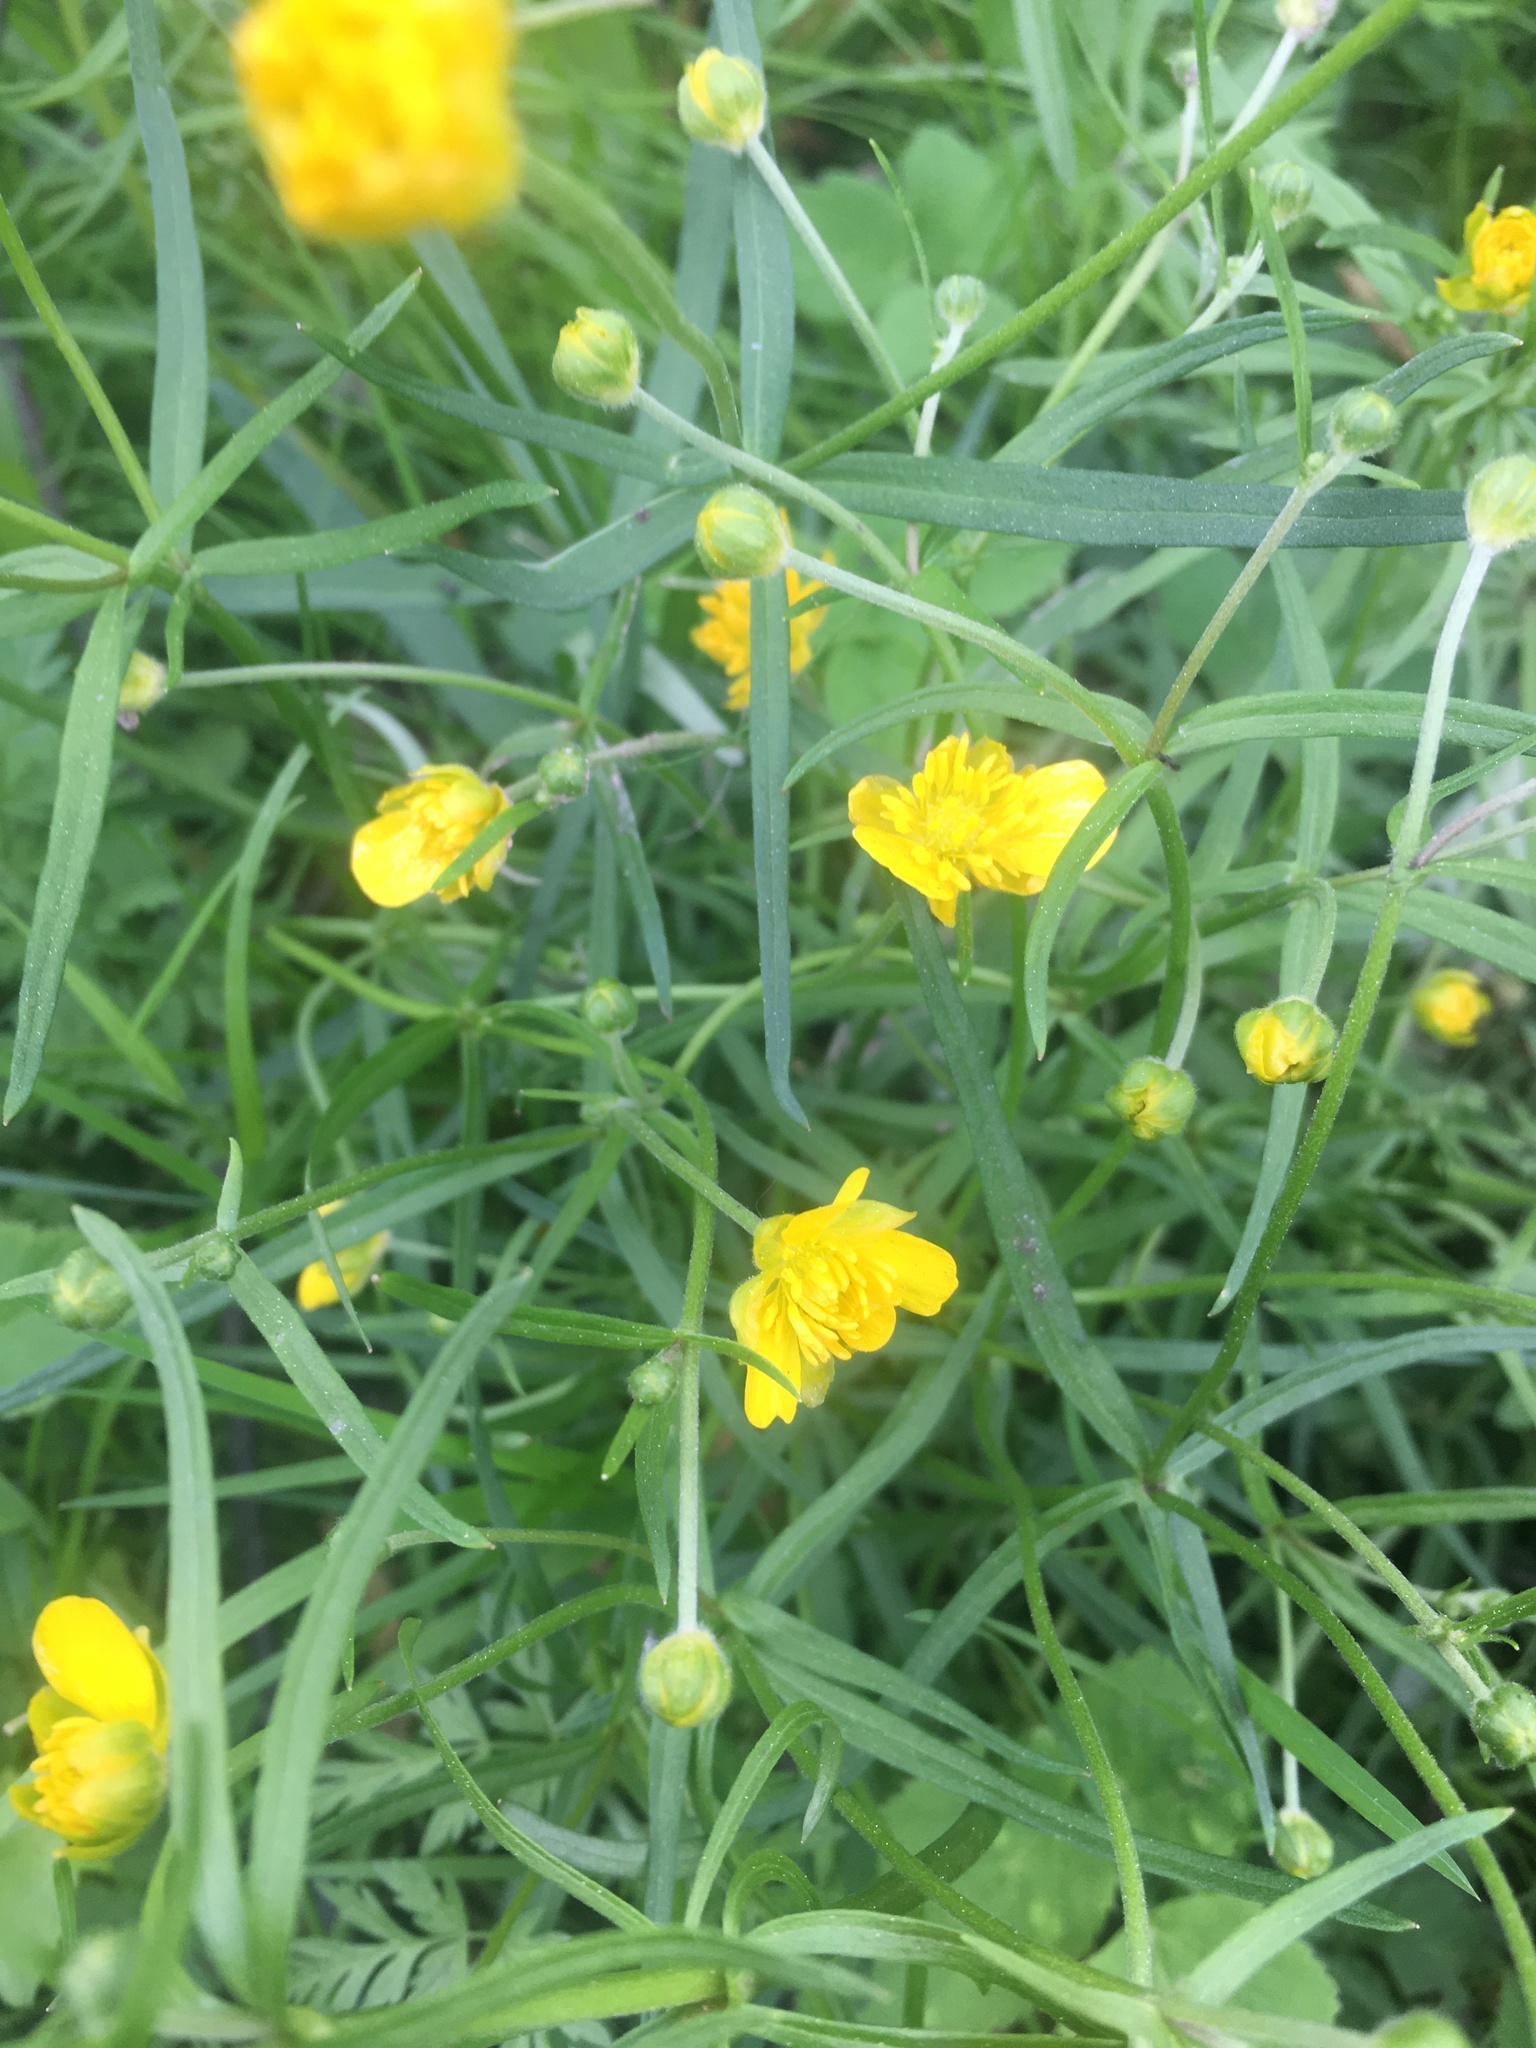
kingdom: Plantae
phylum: Tracheophyta
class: Magnoliopsida
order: Ranunculales
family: Ranunculaceae
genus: Ranunculus
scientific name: Ranunculus auricomus
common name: Goldilocks buttercup
